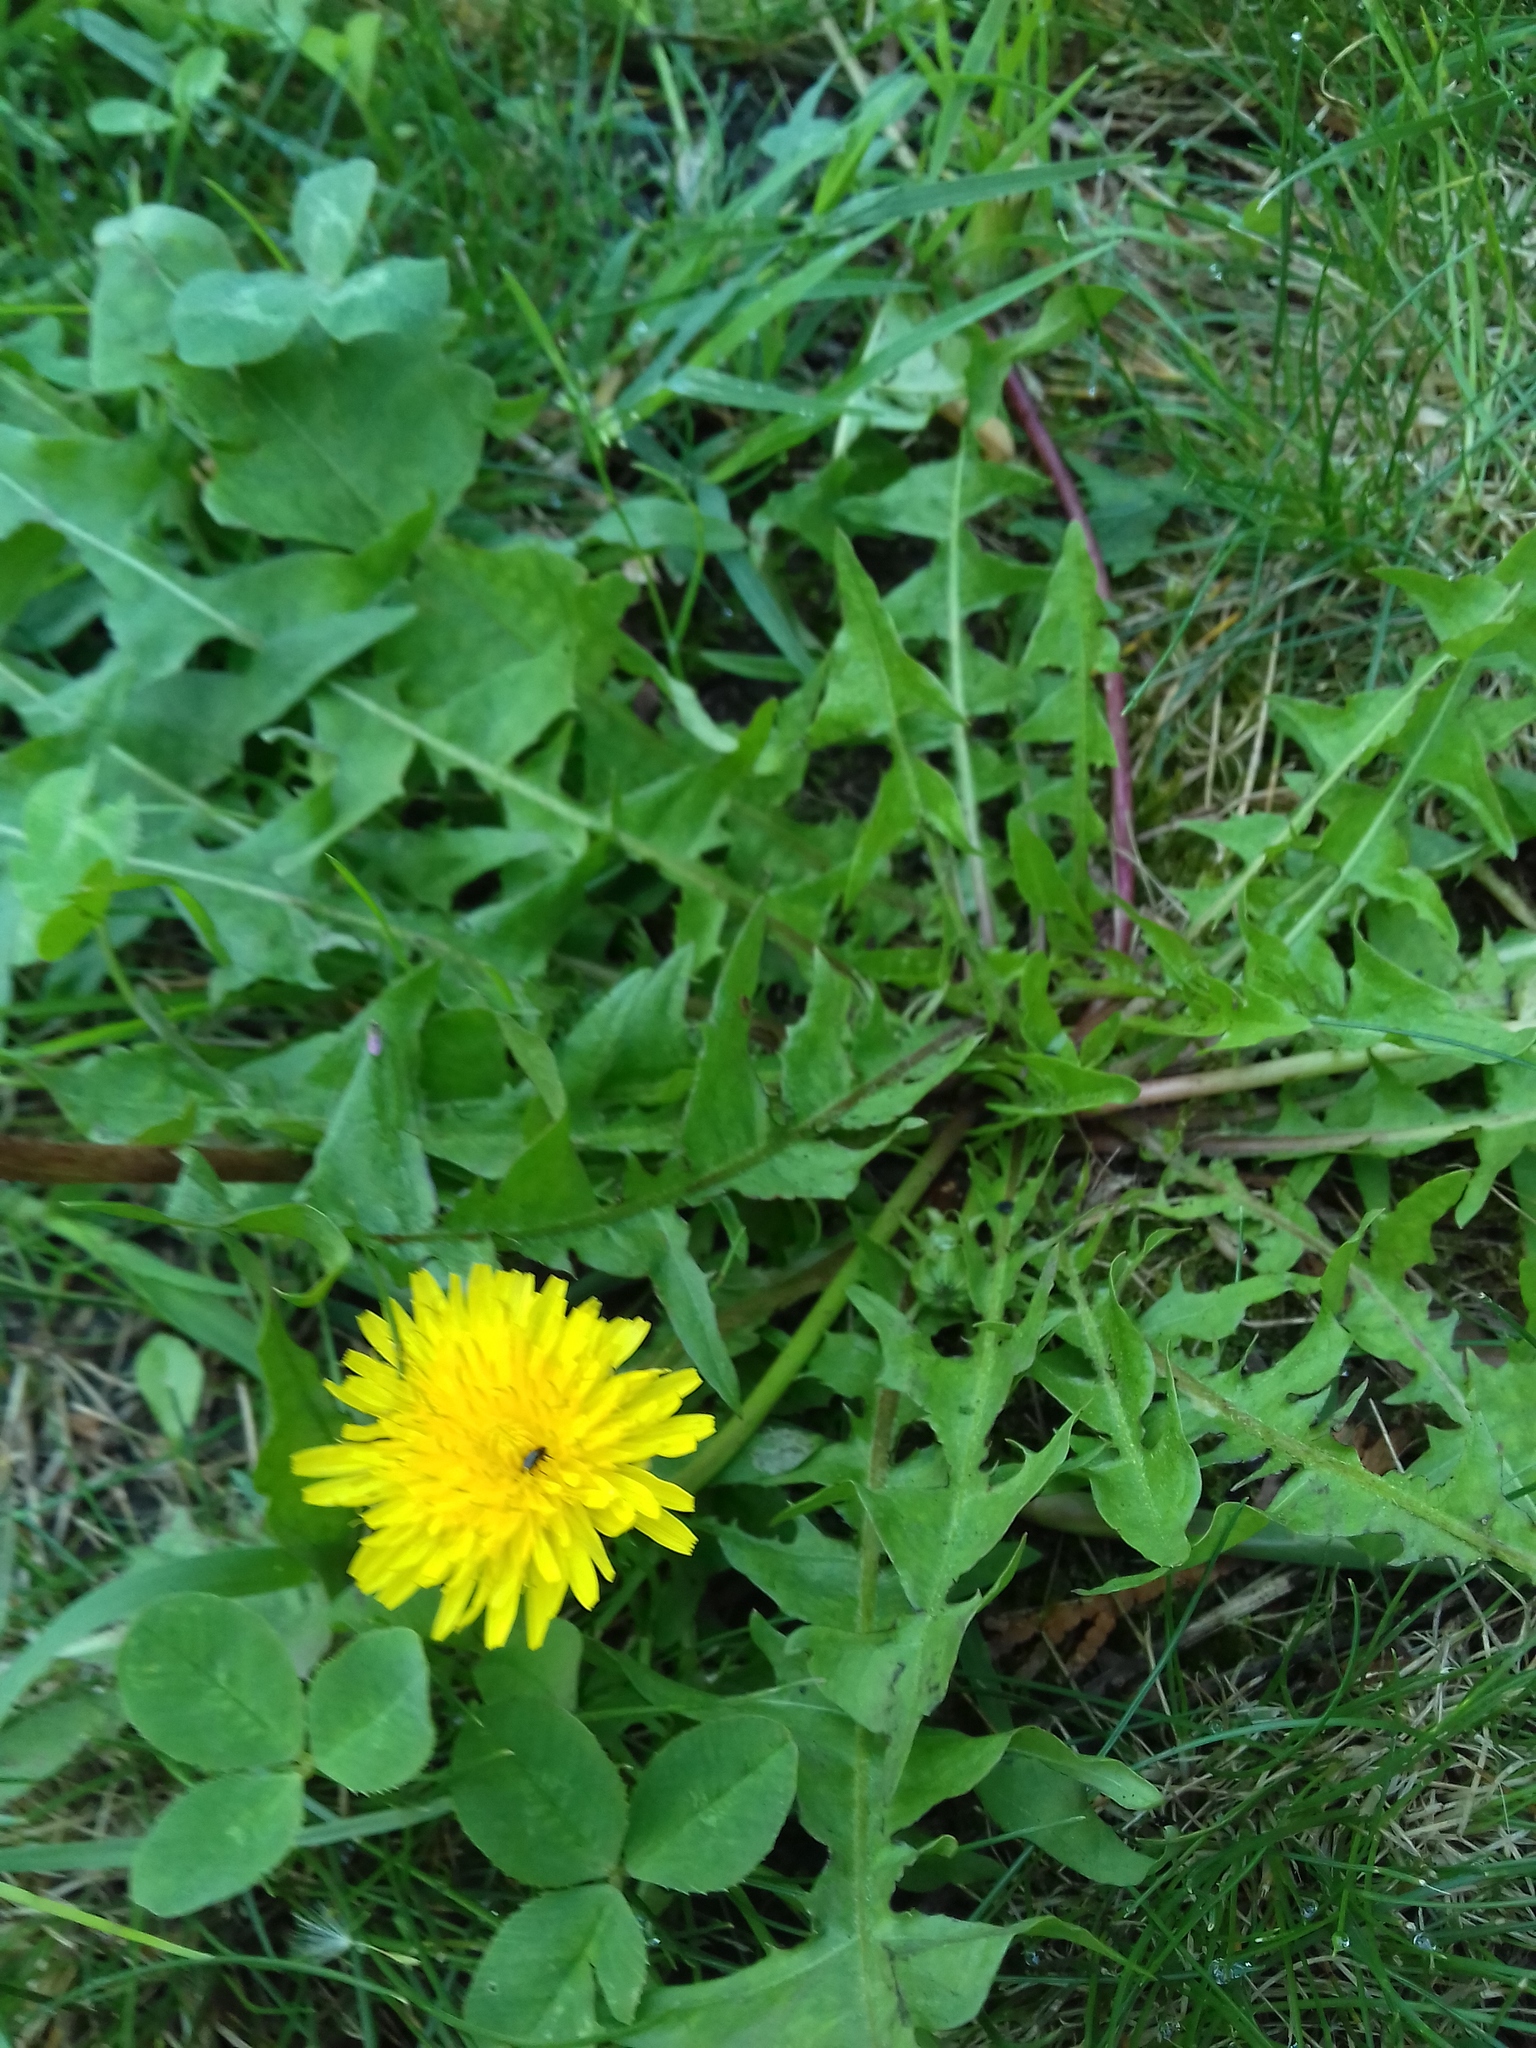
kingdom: Plantae
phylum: Tracheophyta
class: Magnoliopsida
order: Asterales
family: Asteraceae
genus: Taraxacum
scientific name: Taraxacum officinale
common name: Common dandelion
